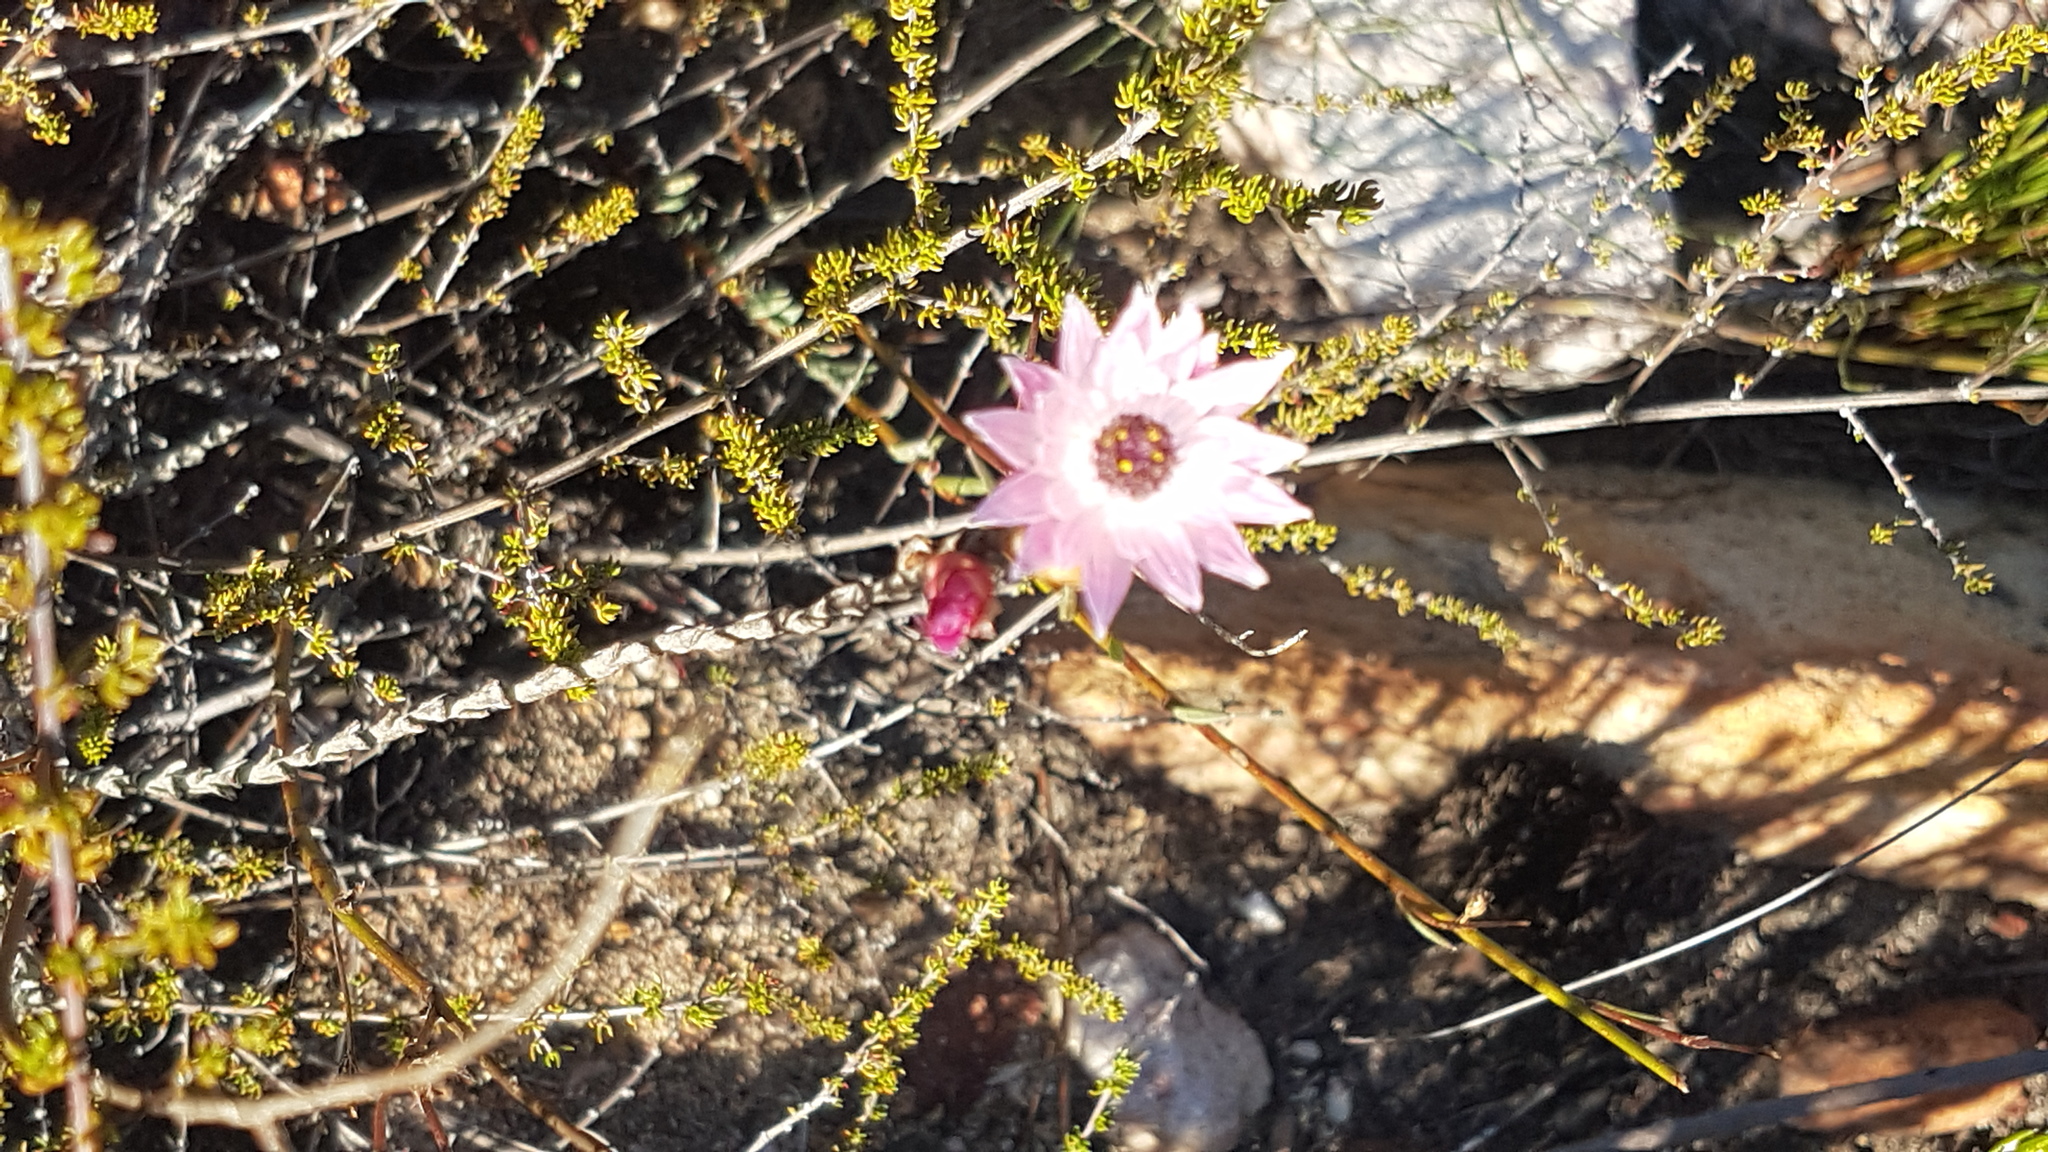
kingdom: Plantae
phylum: Tracheophyta
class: Magnoliopsida
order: Asterales
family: Asteraceae
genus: Syncarpha
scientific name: Syncarpha canescens
